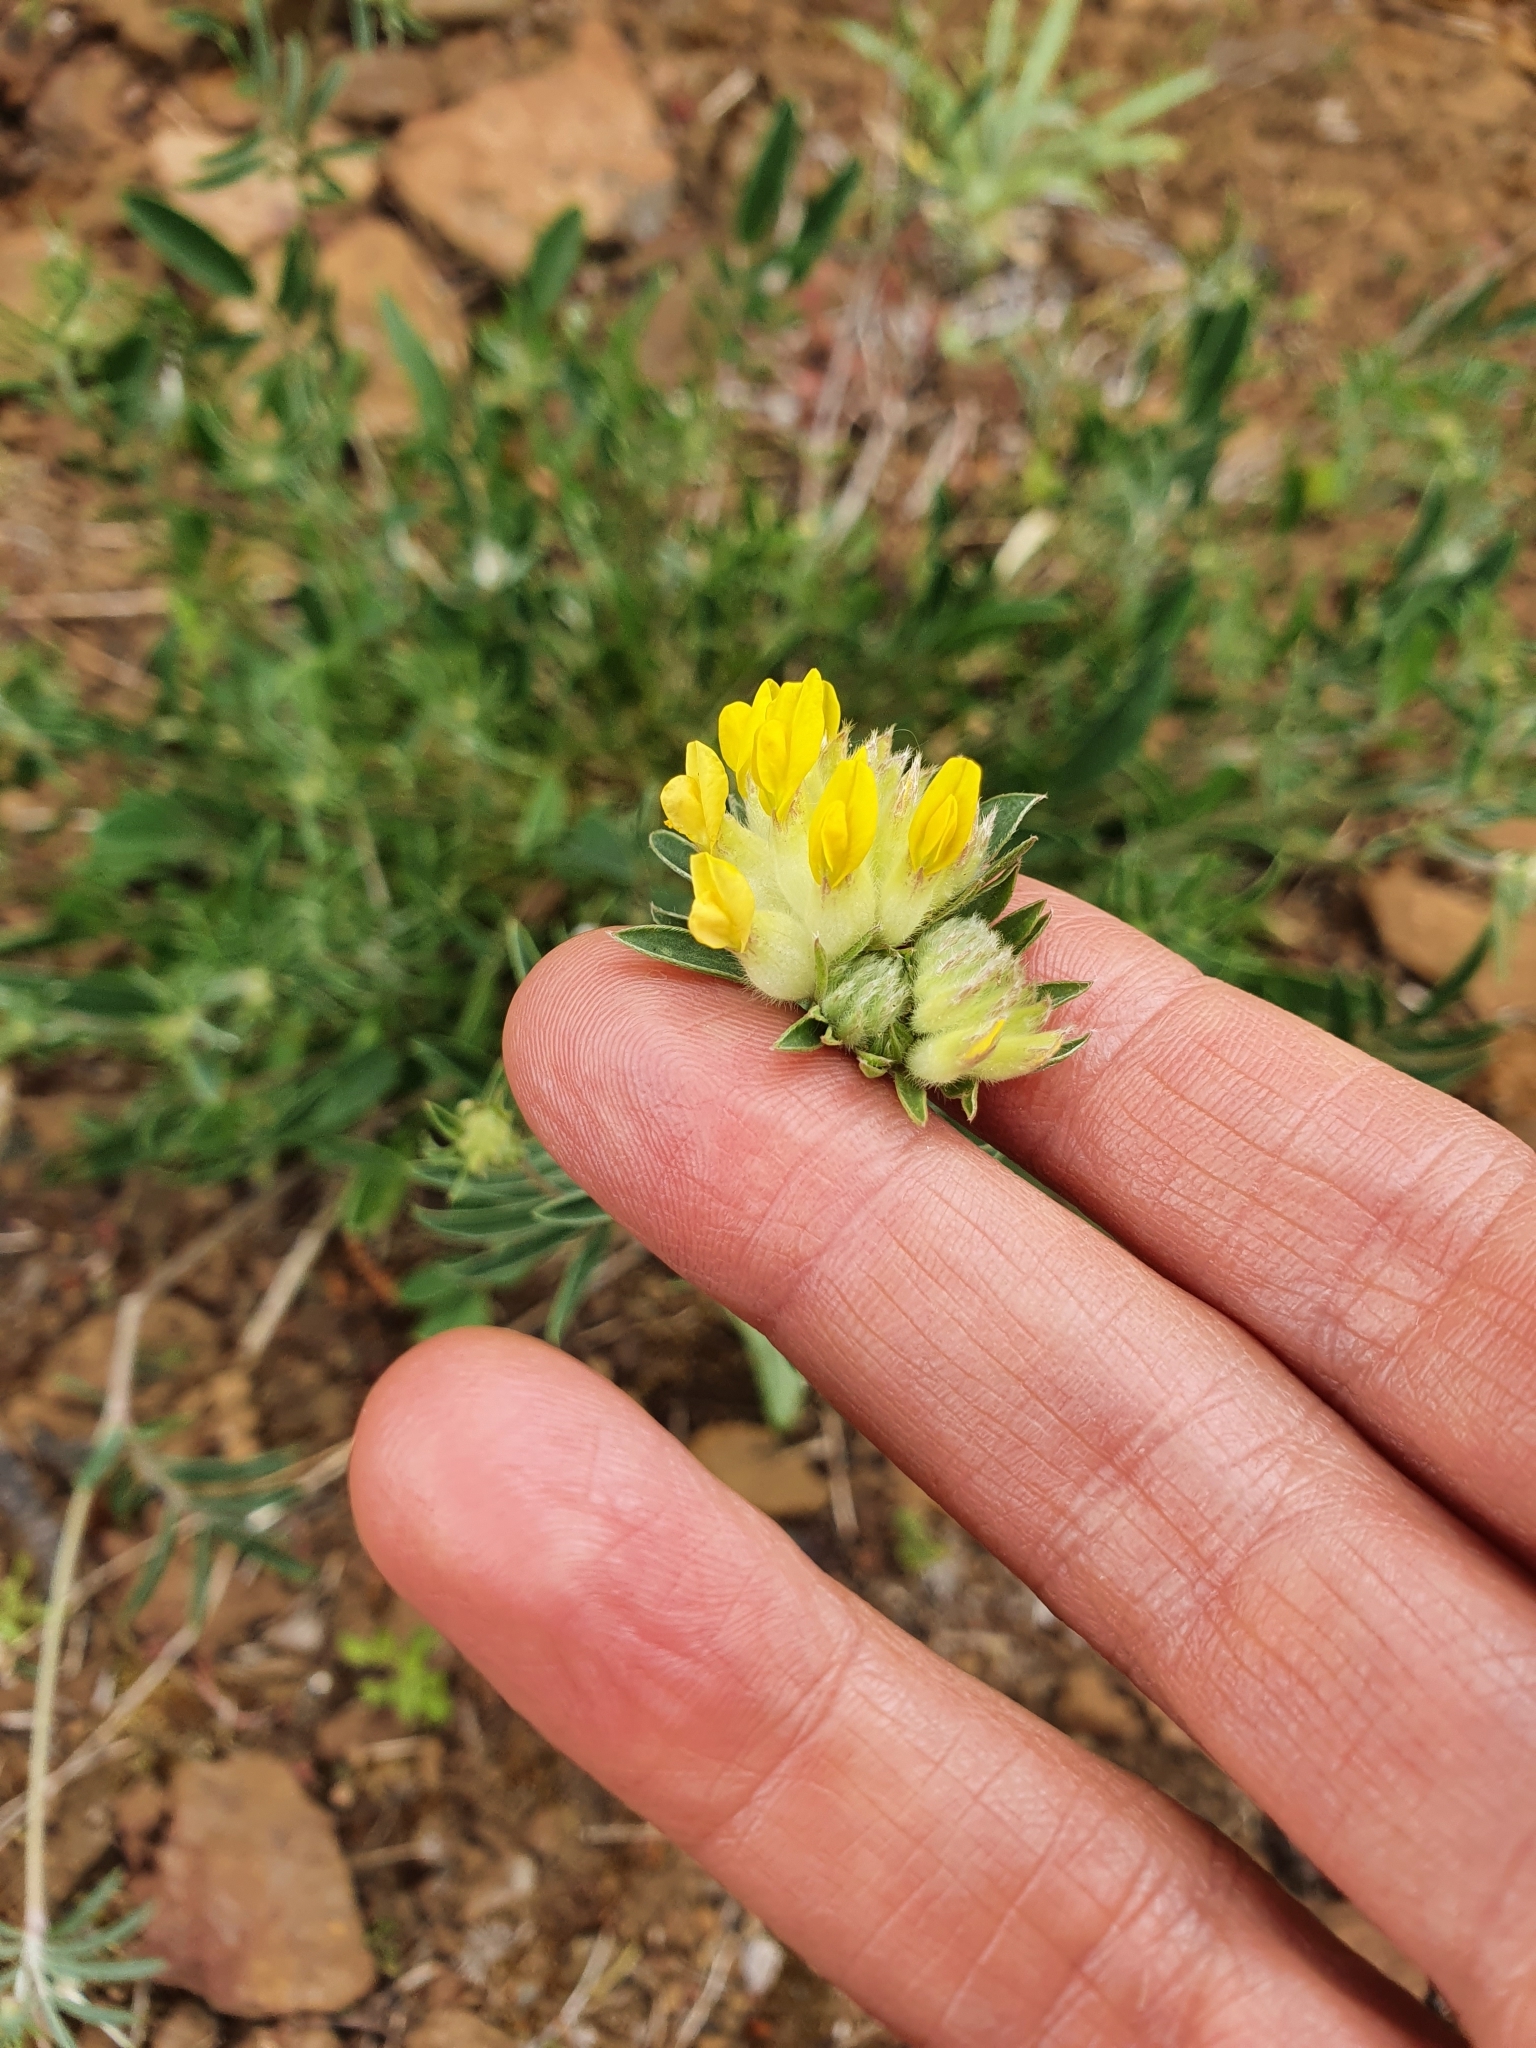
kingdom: Plantae
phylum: Tracheophyta
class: Magnoliopsida
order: Fabales
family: Fabaceae
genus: Anthyllis
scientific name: Anthyllis vulneraria
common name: Kidney vetch
